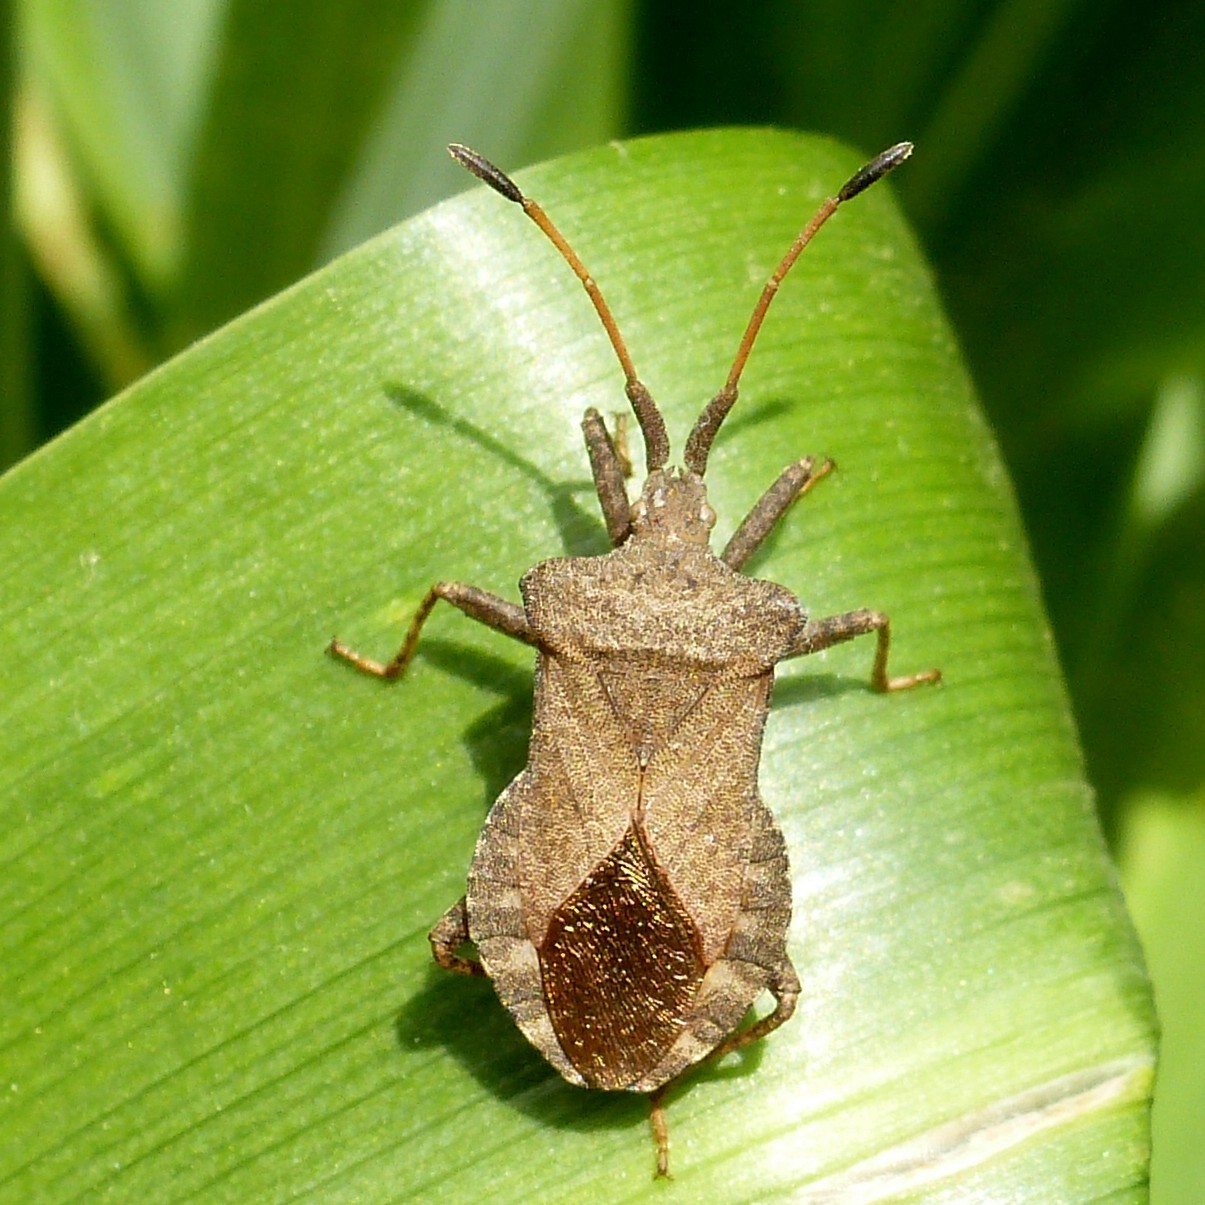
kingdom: Animalia
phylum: Arthropoda
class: Insecta
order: Hemiptera
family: Coreidae
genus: Coreus
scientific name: Coreus marginatus
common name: Dock bug
